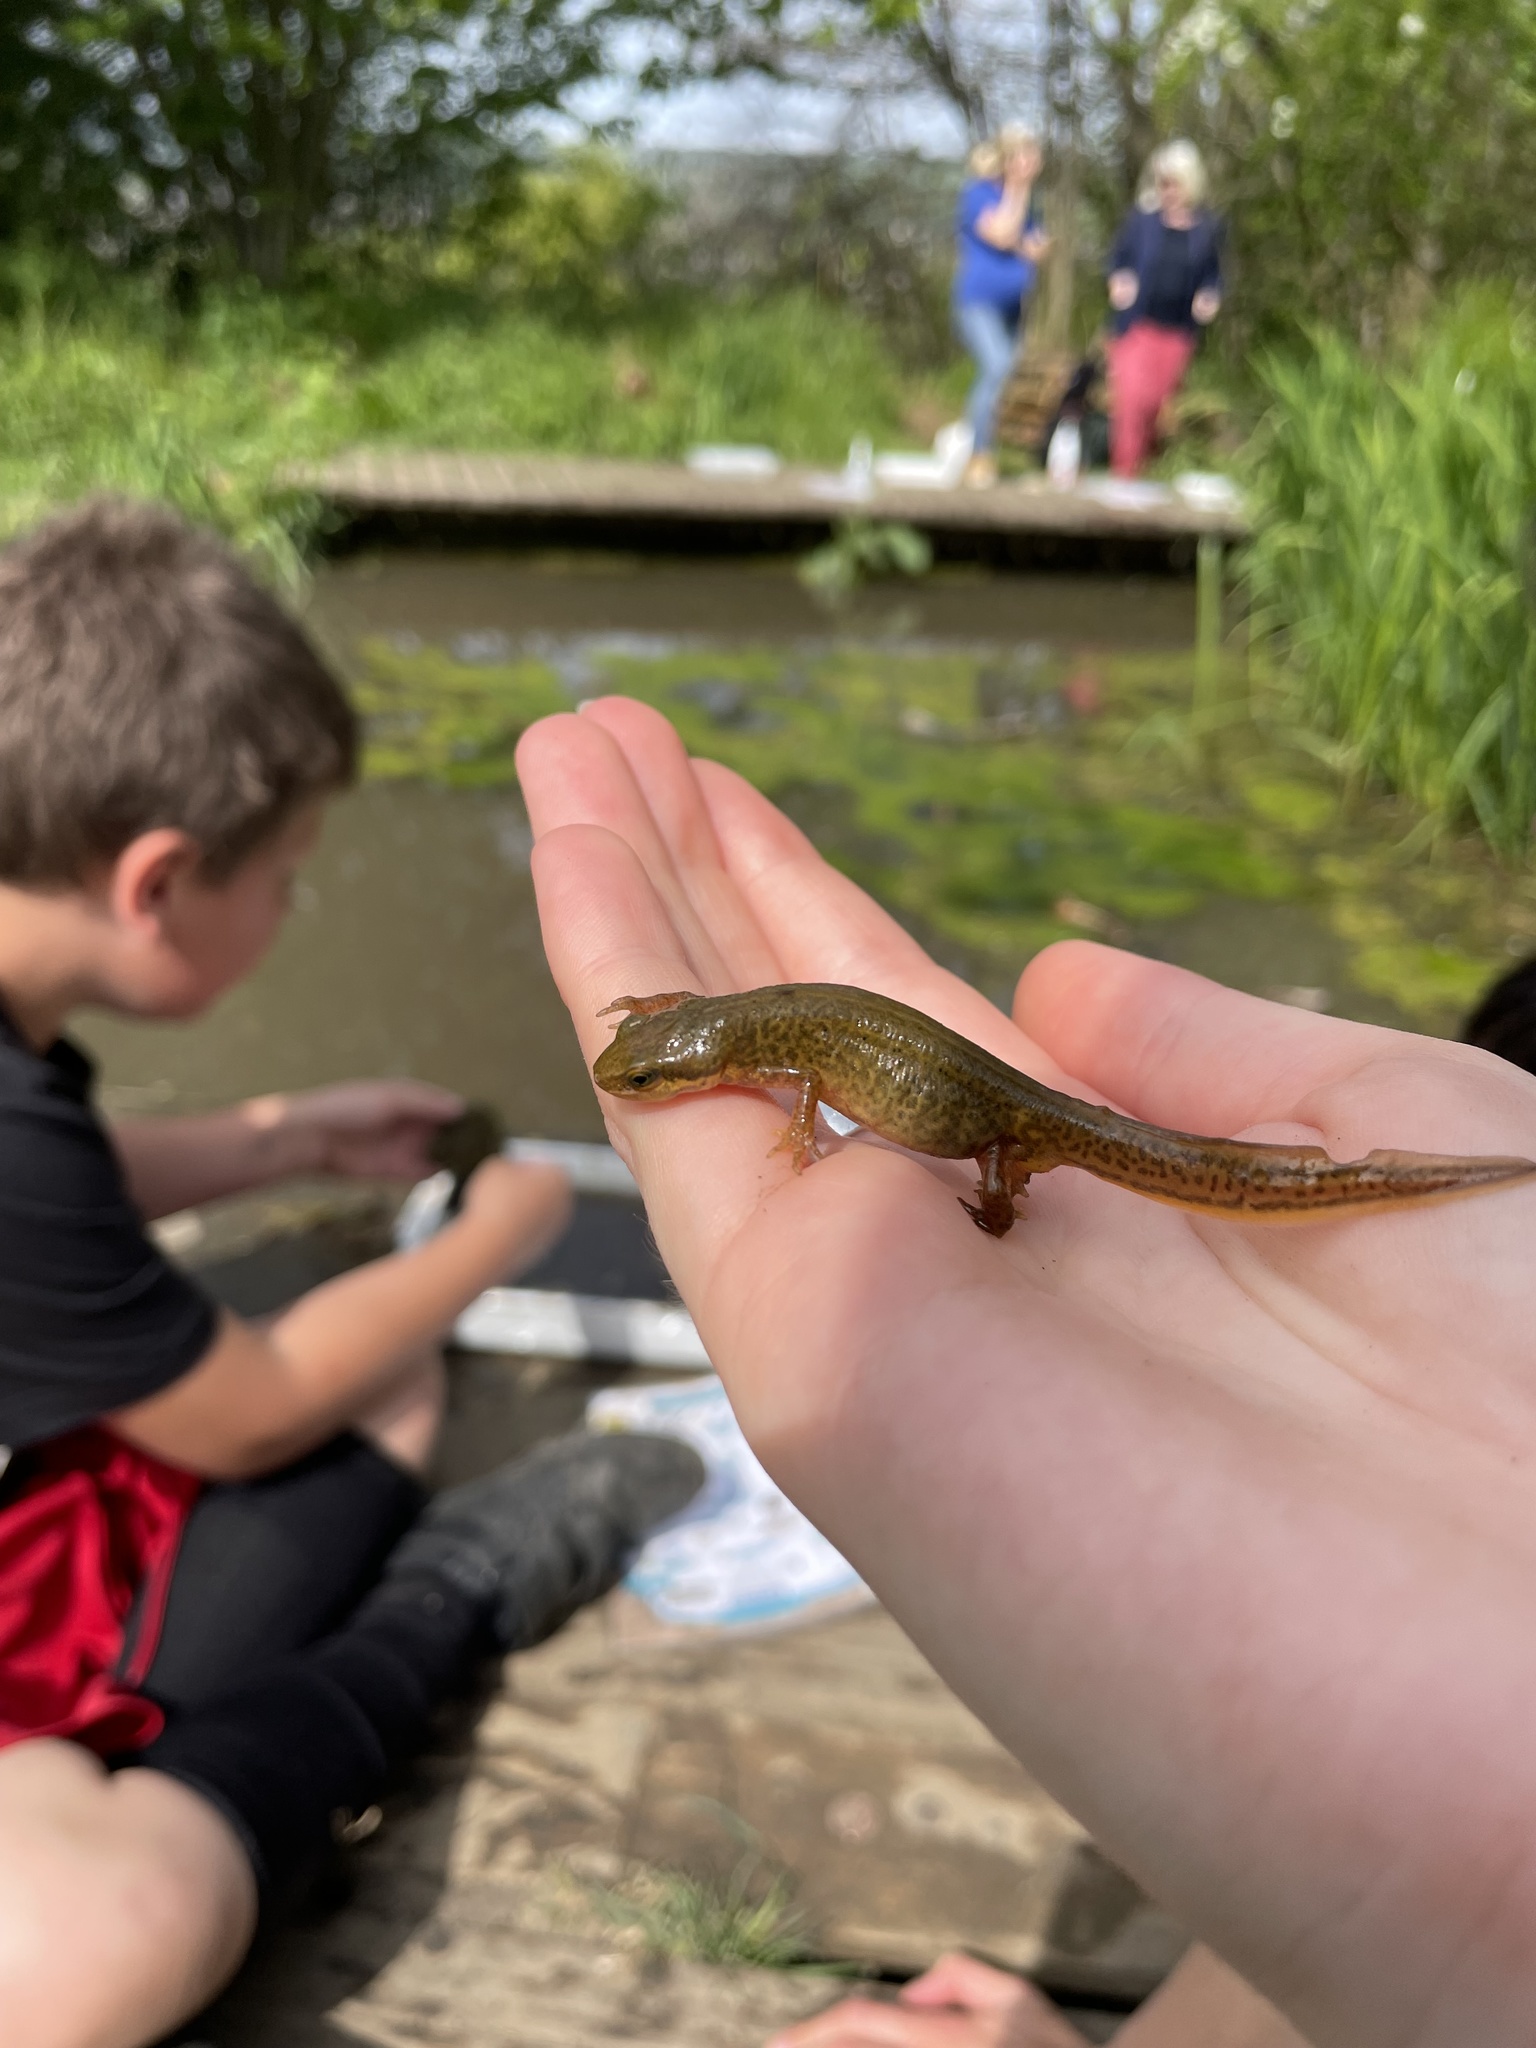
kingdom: Animalia
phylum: Chordata
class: Amphibia
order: Caudata
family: Salamandridae
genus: Lissotriton
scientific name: Lissotriton helveticus
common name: Palmate newt
